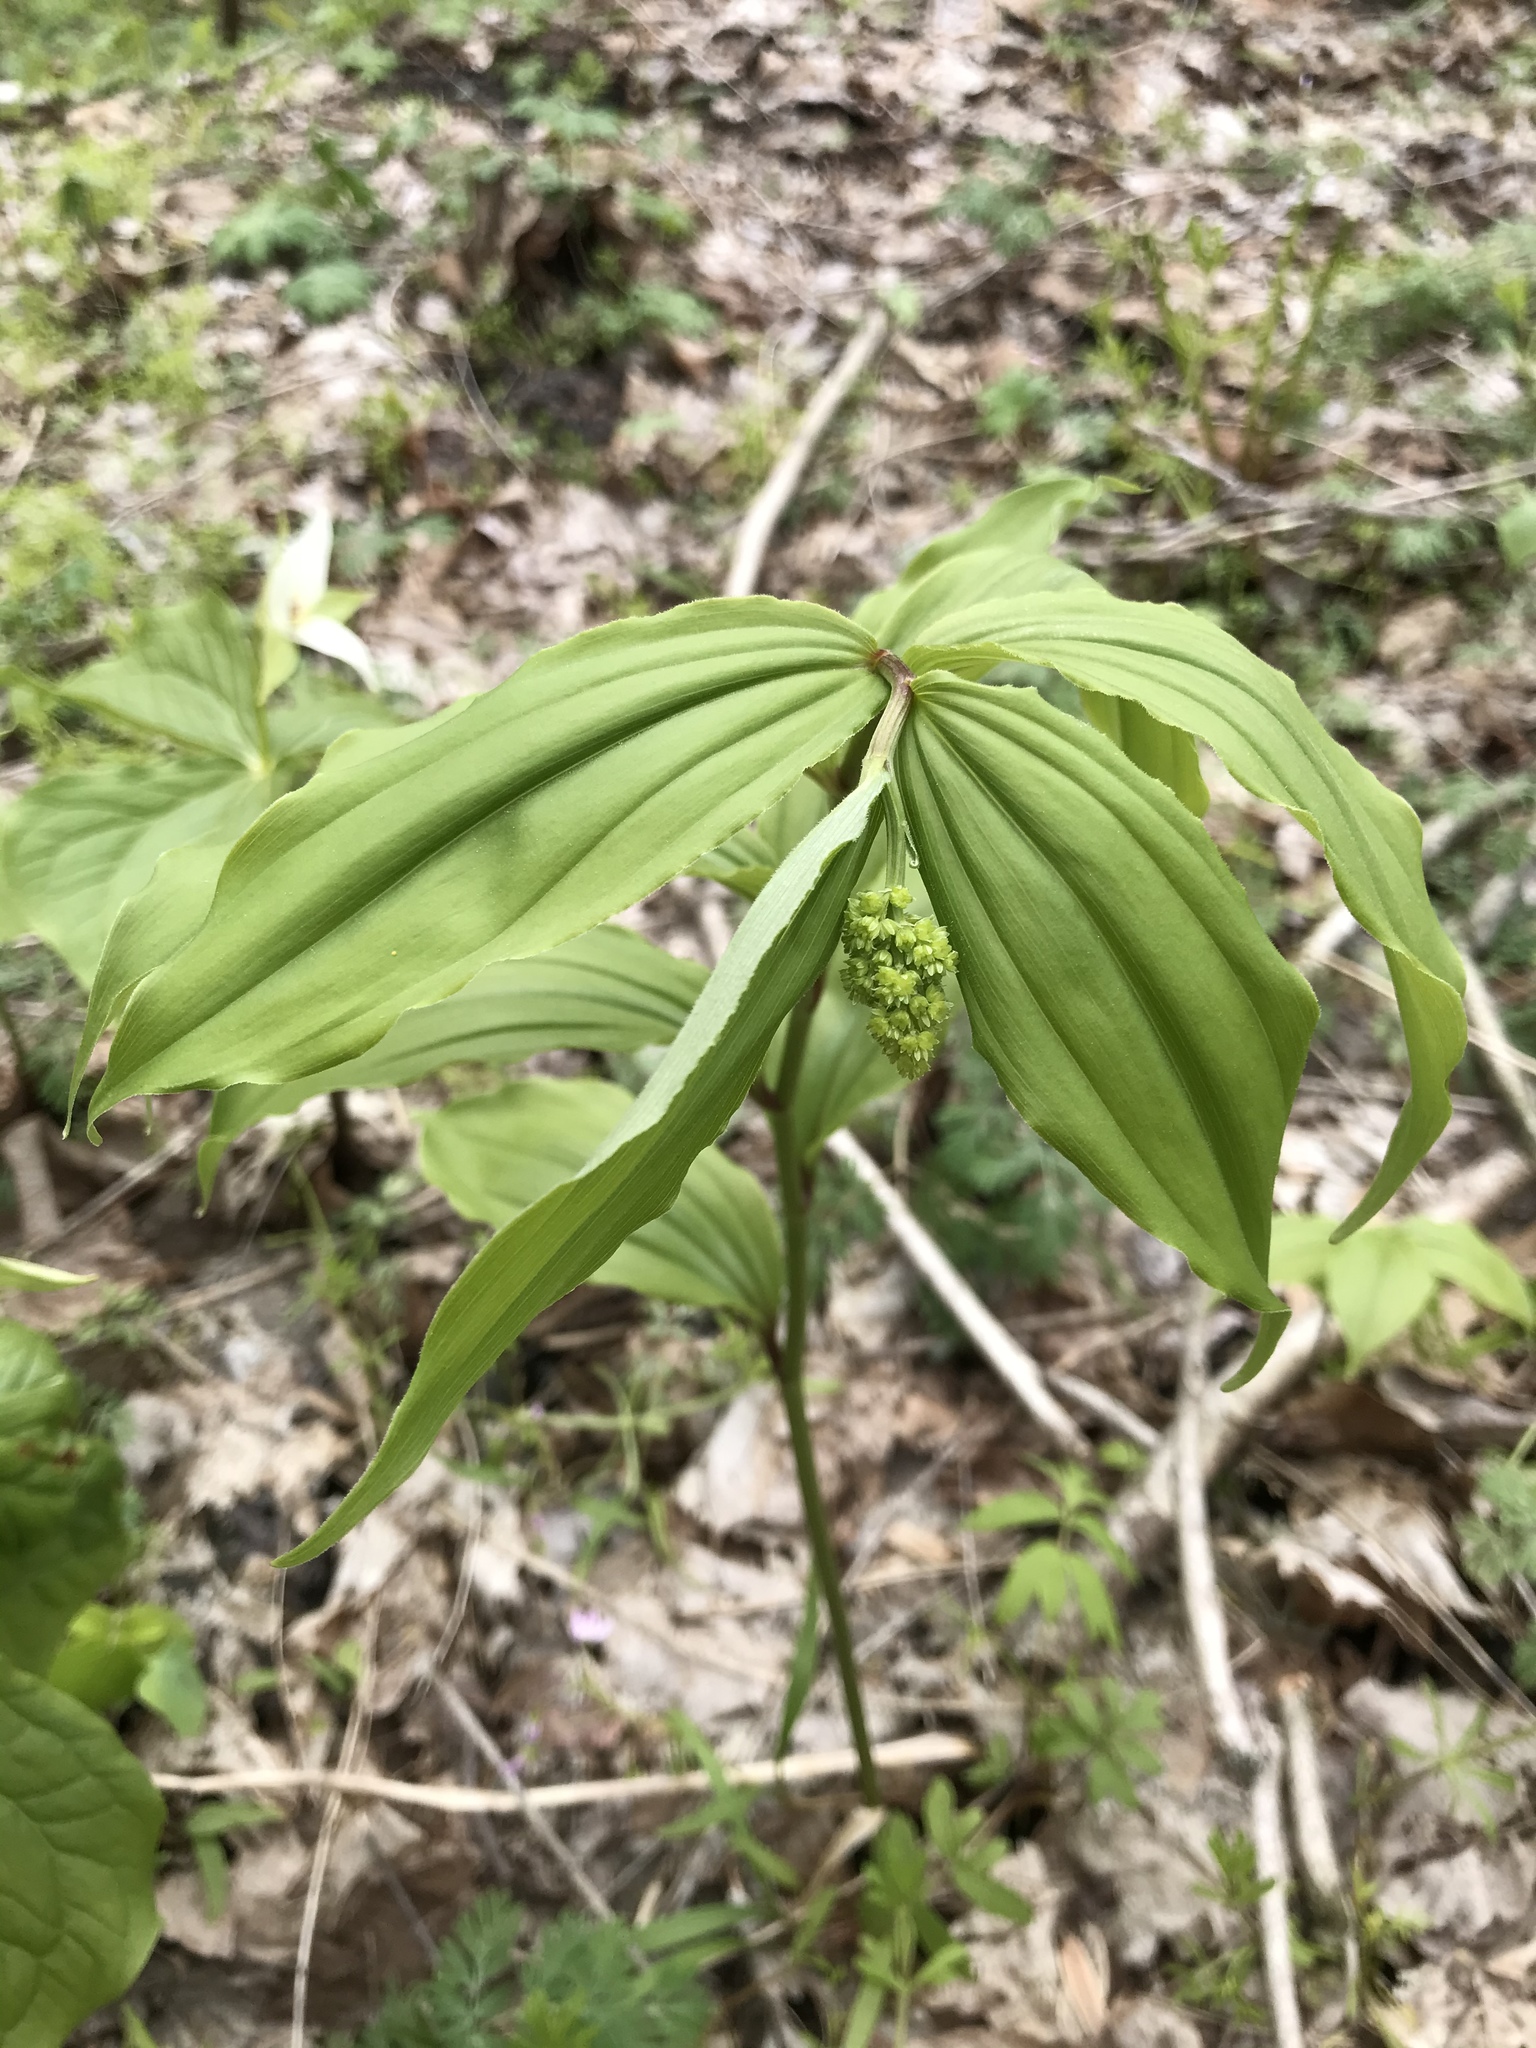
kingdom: Plantae
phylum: Tracheophyta
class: Liliopsida
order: Asparagales
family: Asparagaceae
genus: Maianthemum
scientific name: Maianthemum racemosum
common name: False spikenard
